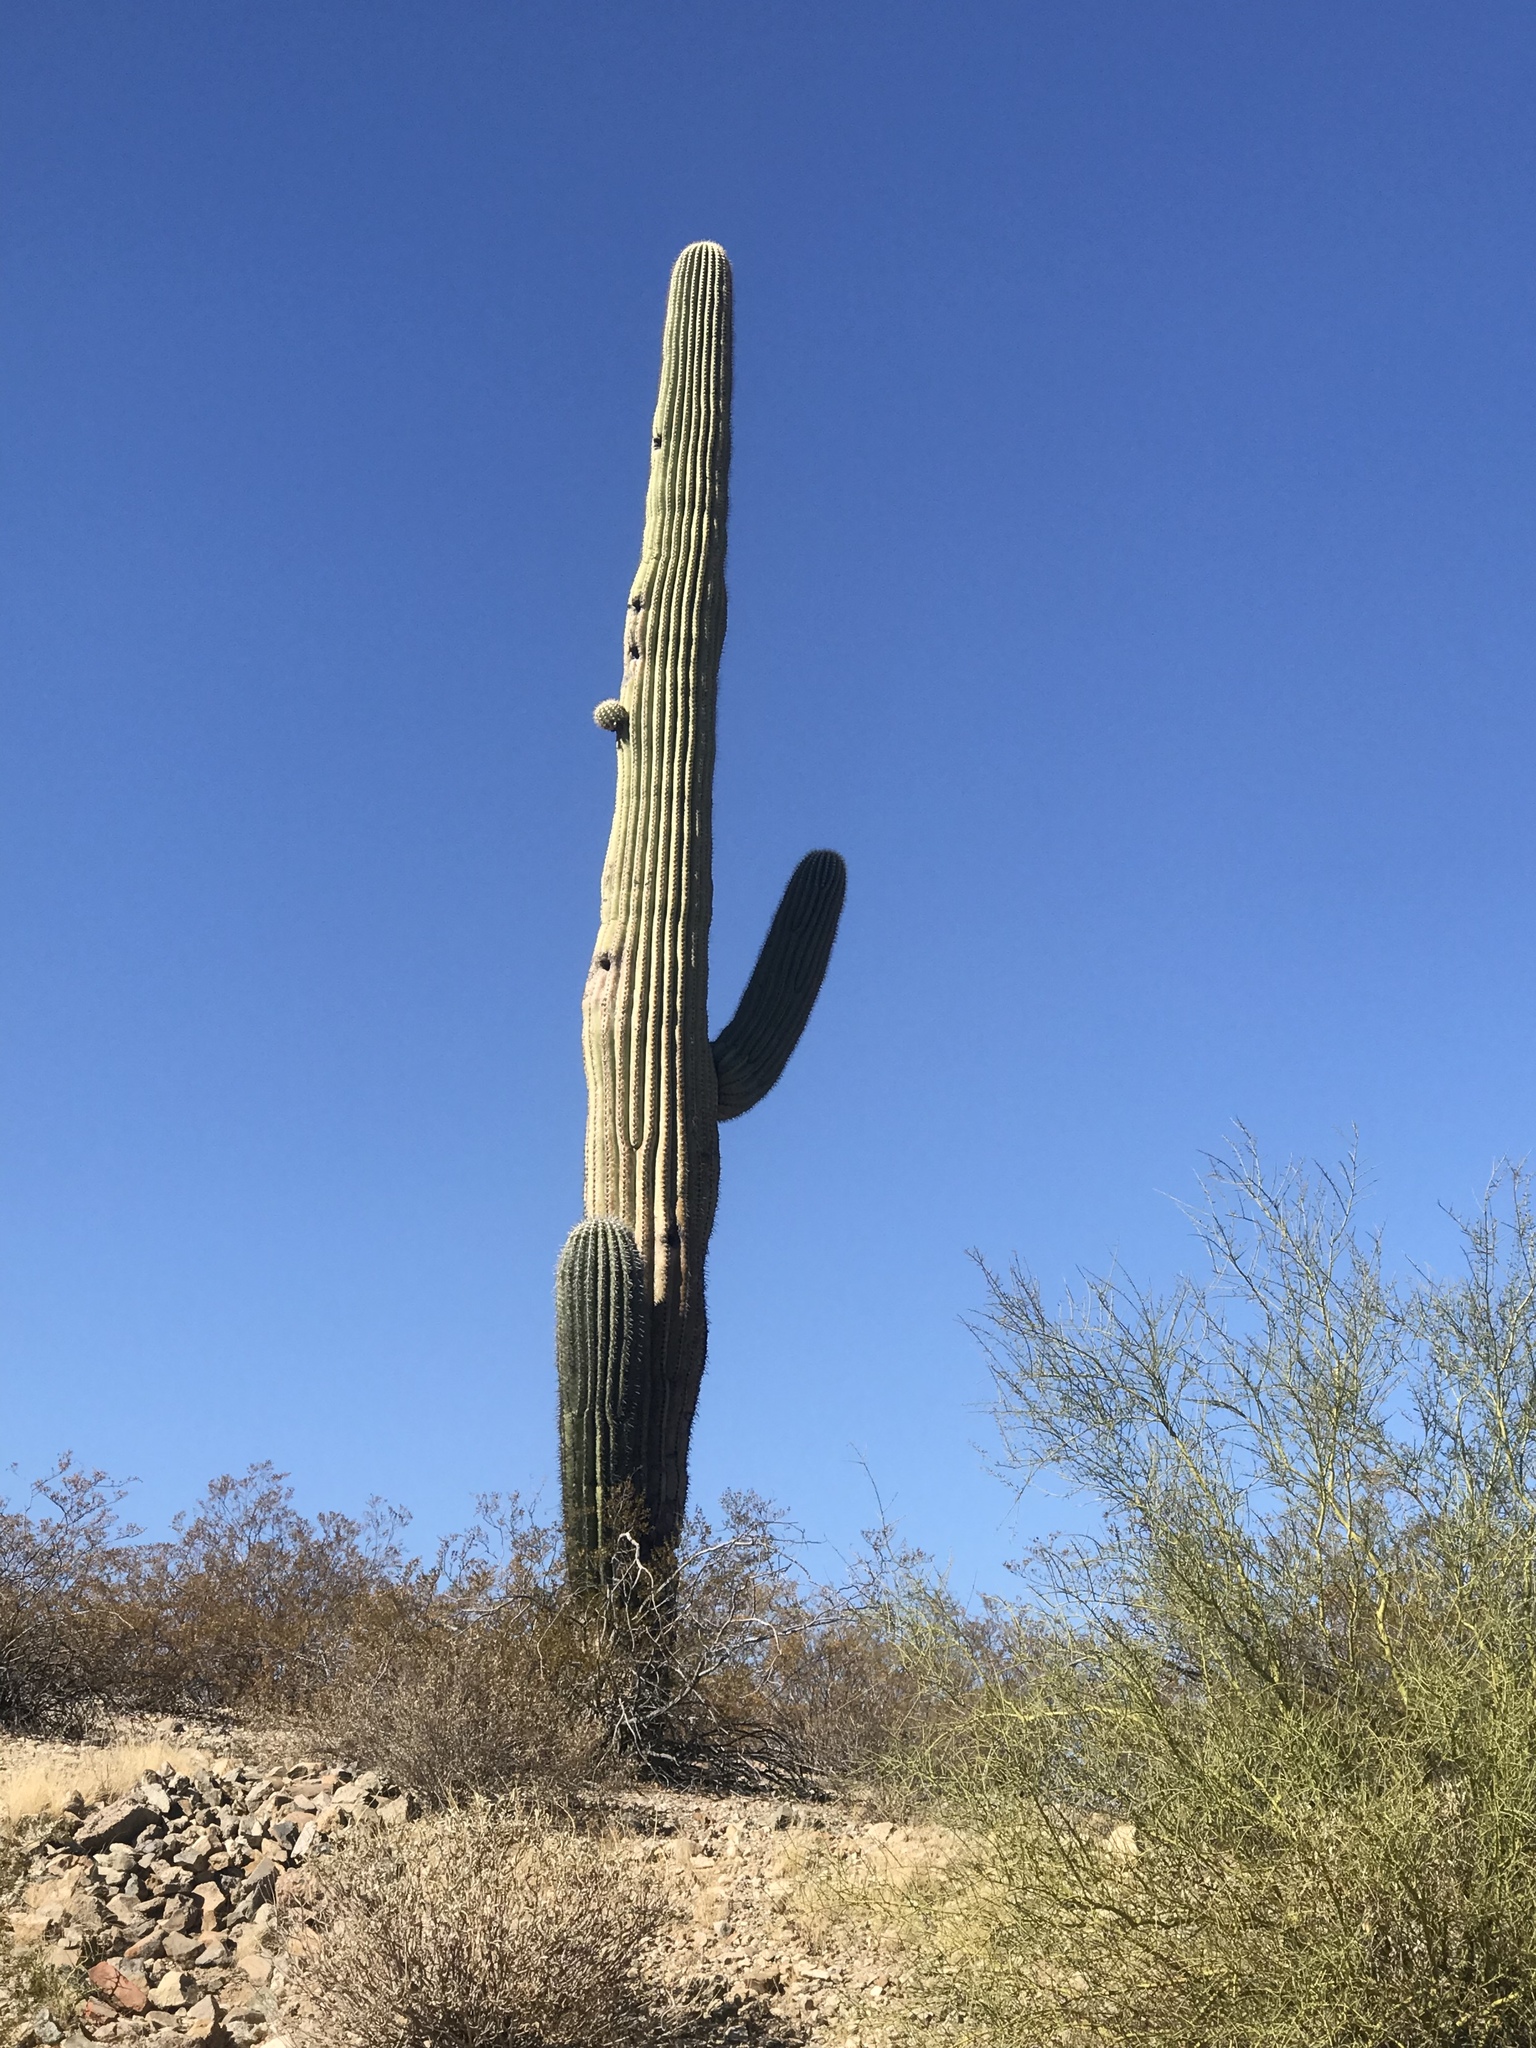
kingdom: Plantae
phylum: Tracheophyta
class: Magnoliopsida
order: Caryophyllales
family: Cactaceae
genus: Carnegiea
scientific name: Carnegiea gigantea
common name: Saguaro
